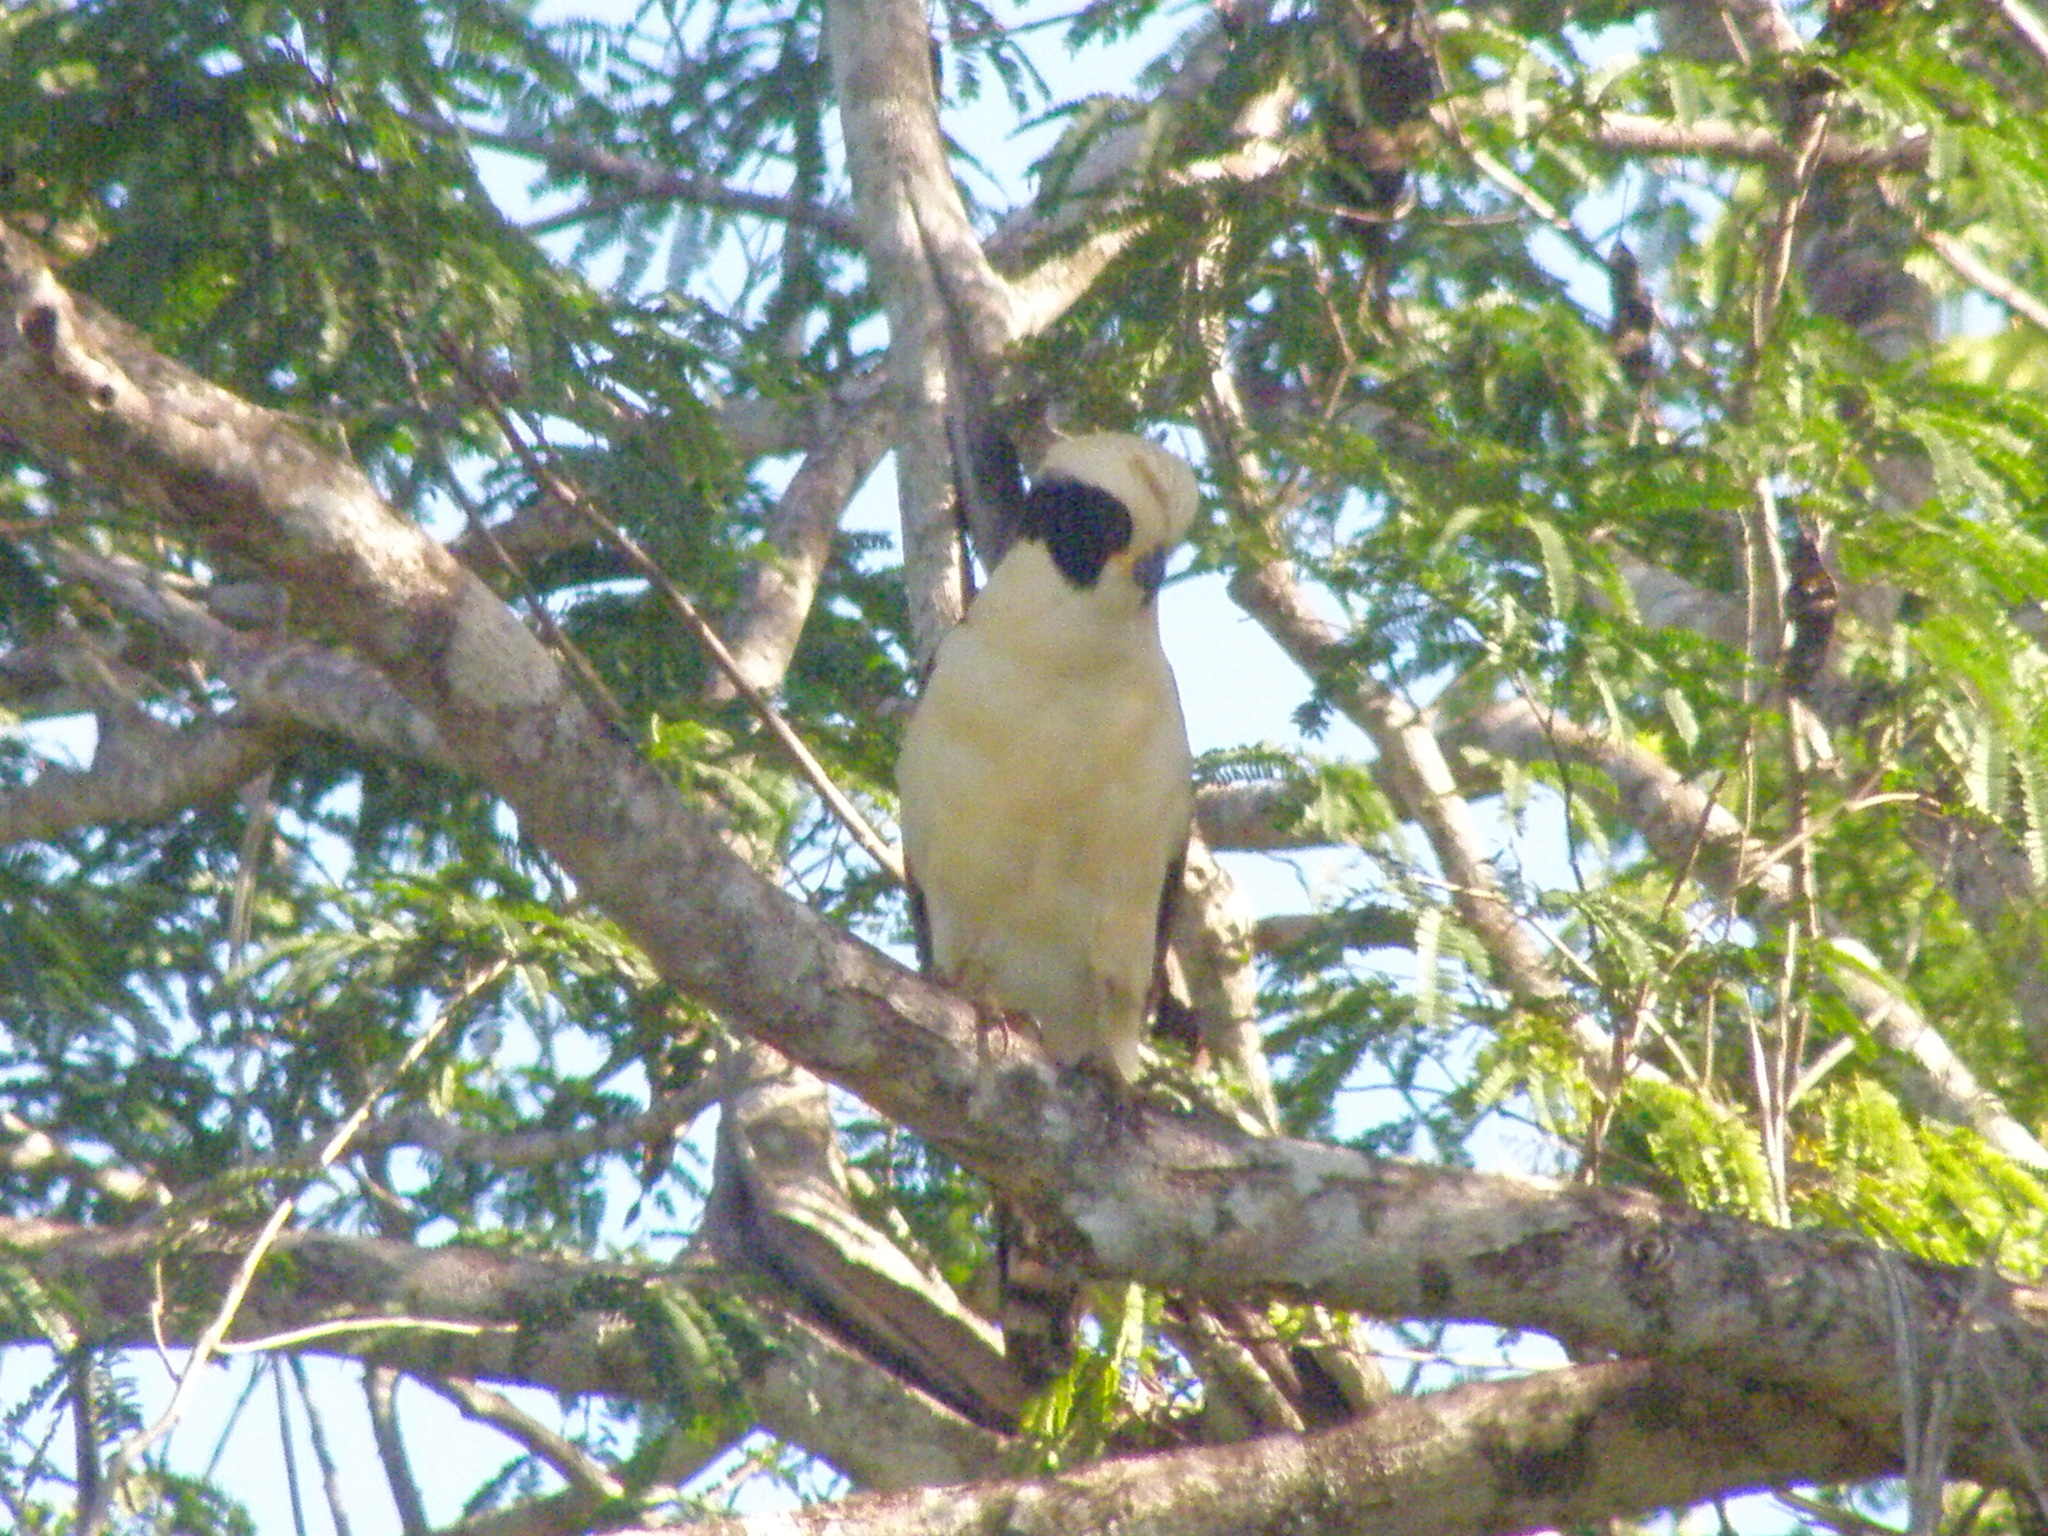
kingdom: Animalia
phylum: Chordata
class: Aves
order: Falconiformes
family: Falconidae
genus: Herpetotheres
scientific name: Herpetotheres cachinnans
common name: Laughing falcon
